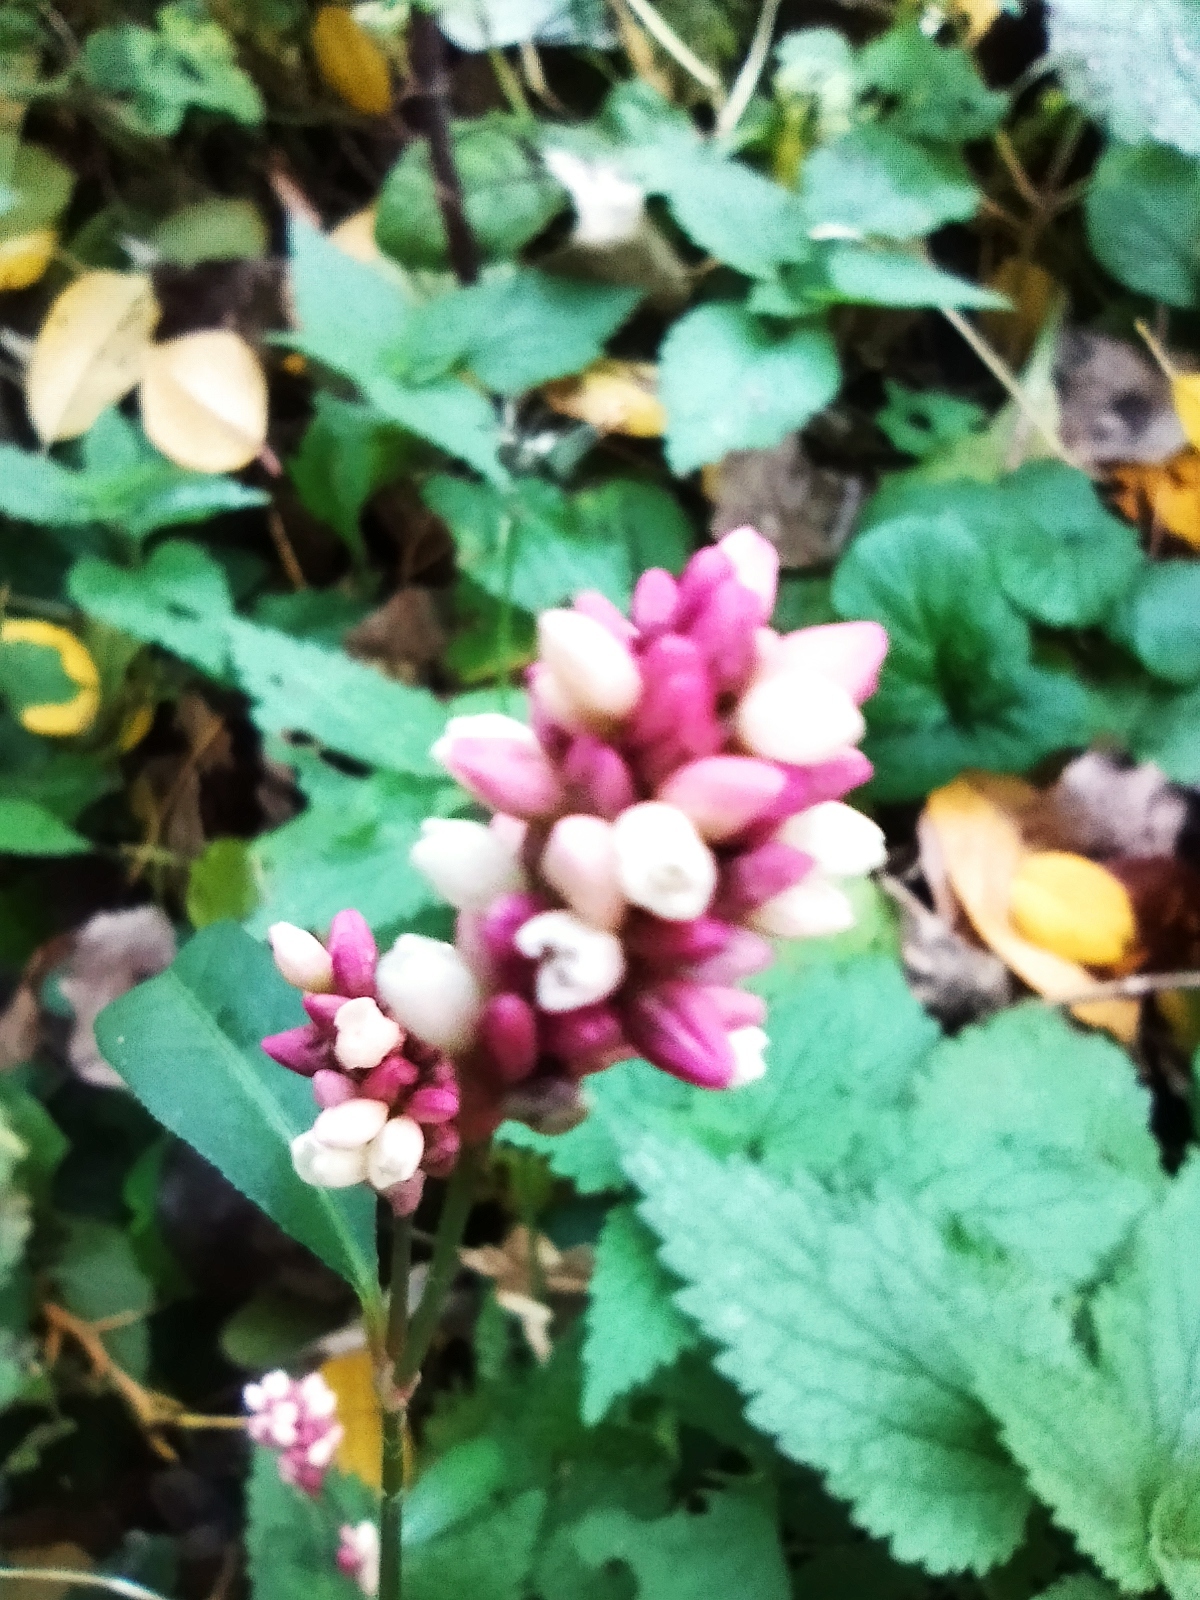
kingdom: Plantae
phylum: Tracheophyta
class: Magnoliopsida
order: Caryophyllales
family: Polygonaceae
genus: Persicaria
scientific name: Persicaria maculosa
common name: Redshank
